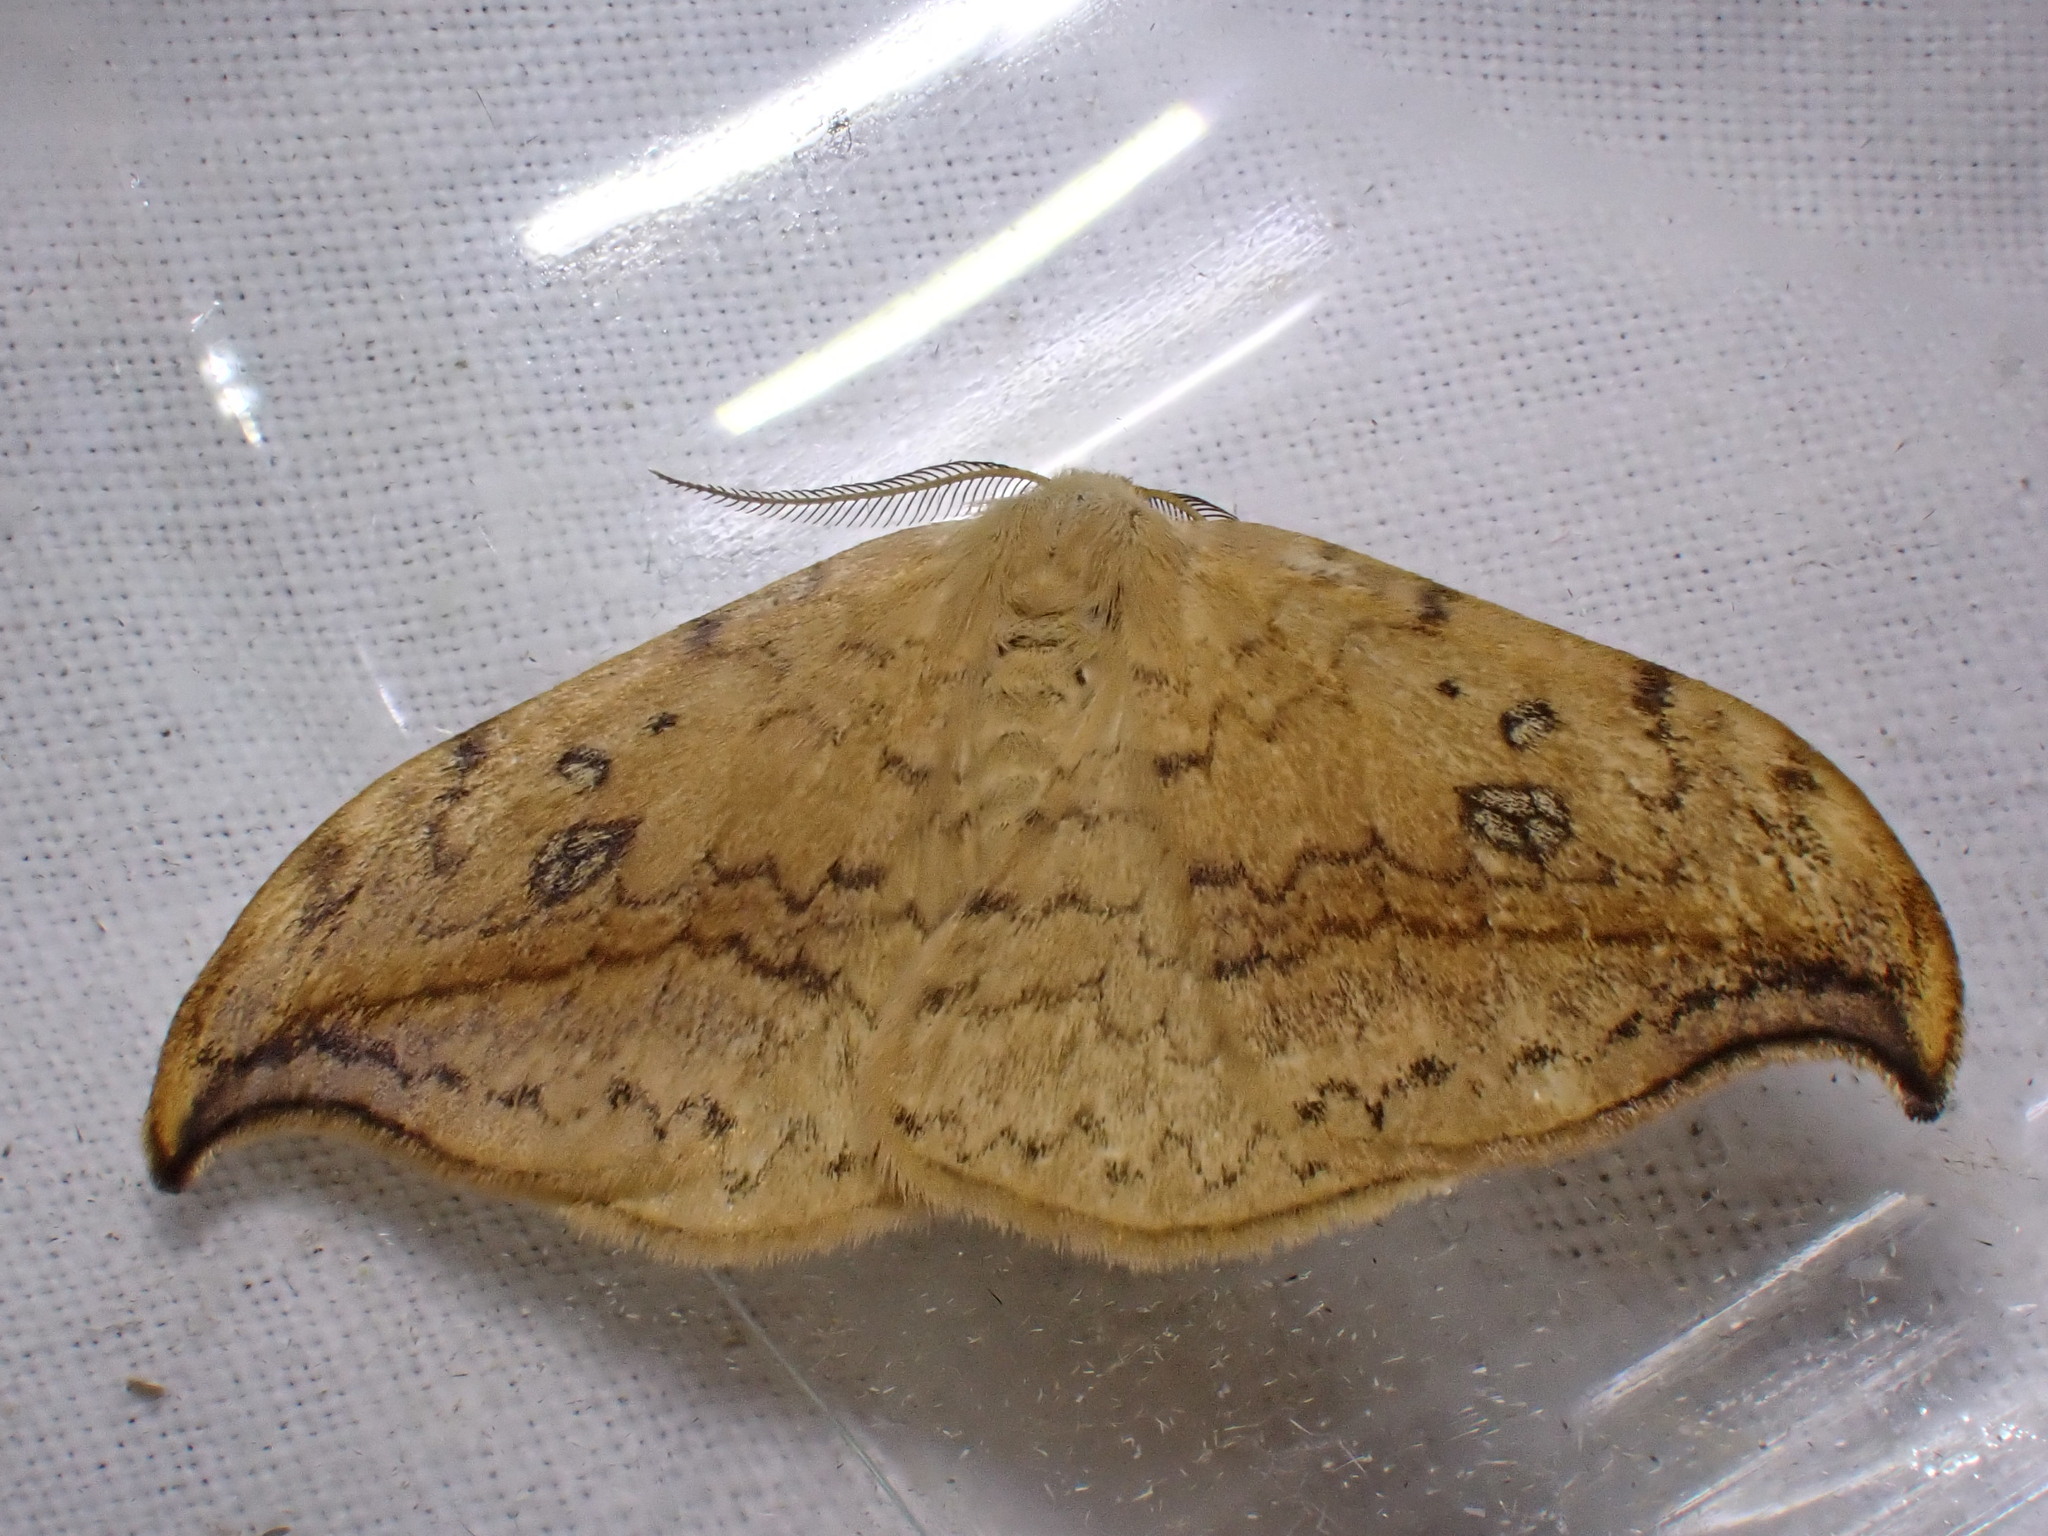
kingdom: Animalia
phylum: Arthropoda
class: Insecta
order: Lepidoptera
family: Drepanidae
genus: Drepana
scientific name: Drepana falcataria
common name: Pebble hook-tip
